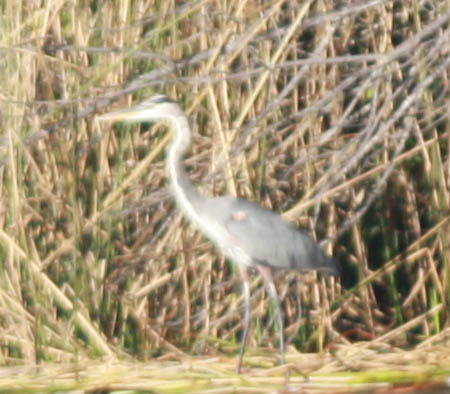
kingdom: Animalia
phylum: Chordata
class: Aves
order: Pelecaniformes
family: Ardeidae
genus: Ardea
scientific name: Ardea herodias
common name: Great blue heron
